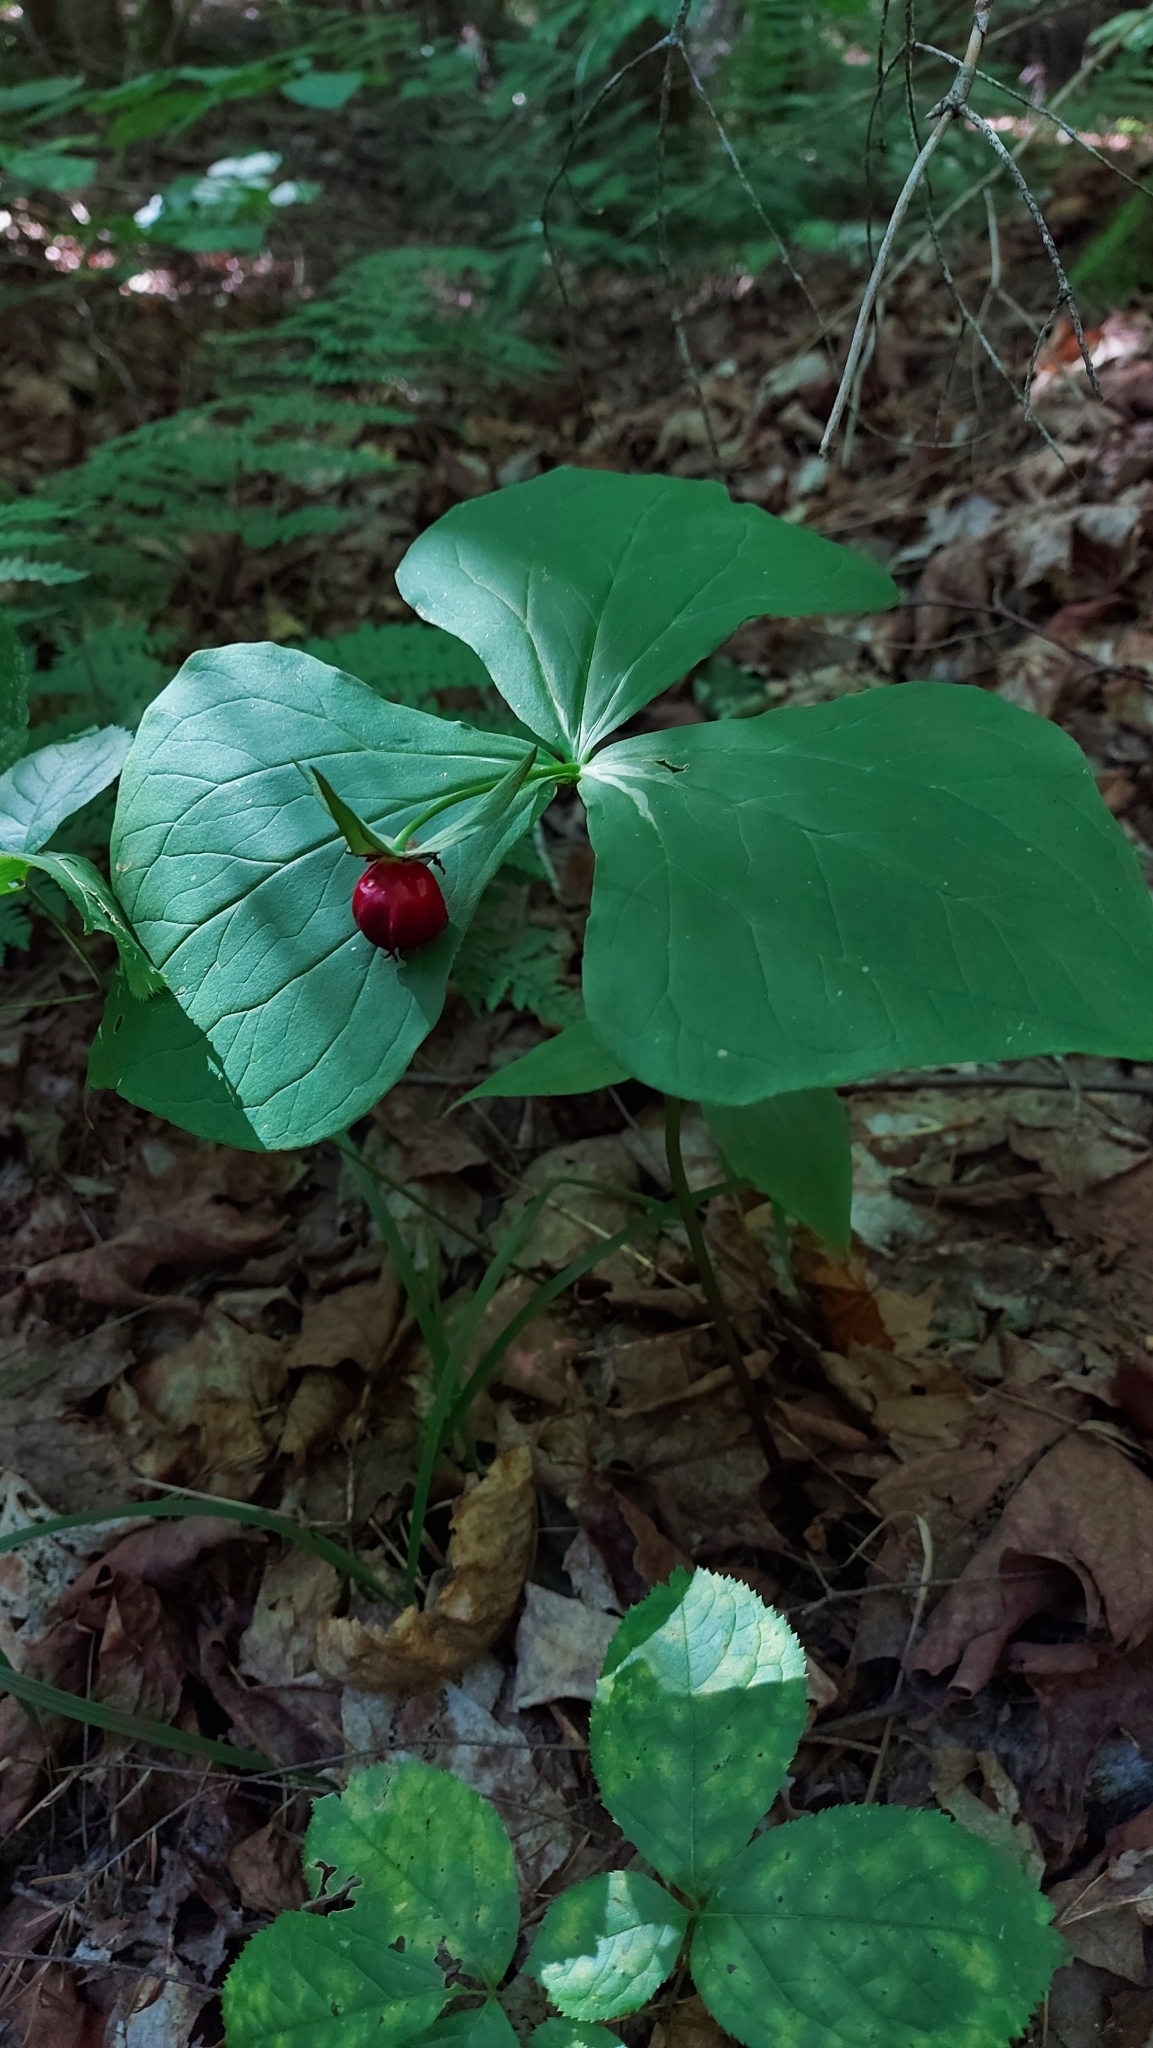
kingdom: Plantae
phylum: Tracheophyta
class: Liliopsida
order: Liliales
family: Melanthiaceae
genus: Trillium
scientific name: Trillium erectum
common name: Purple trillium
